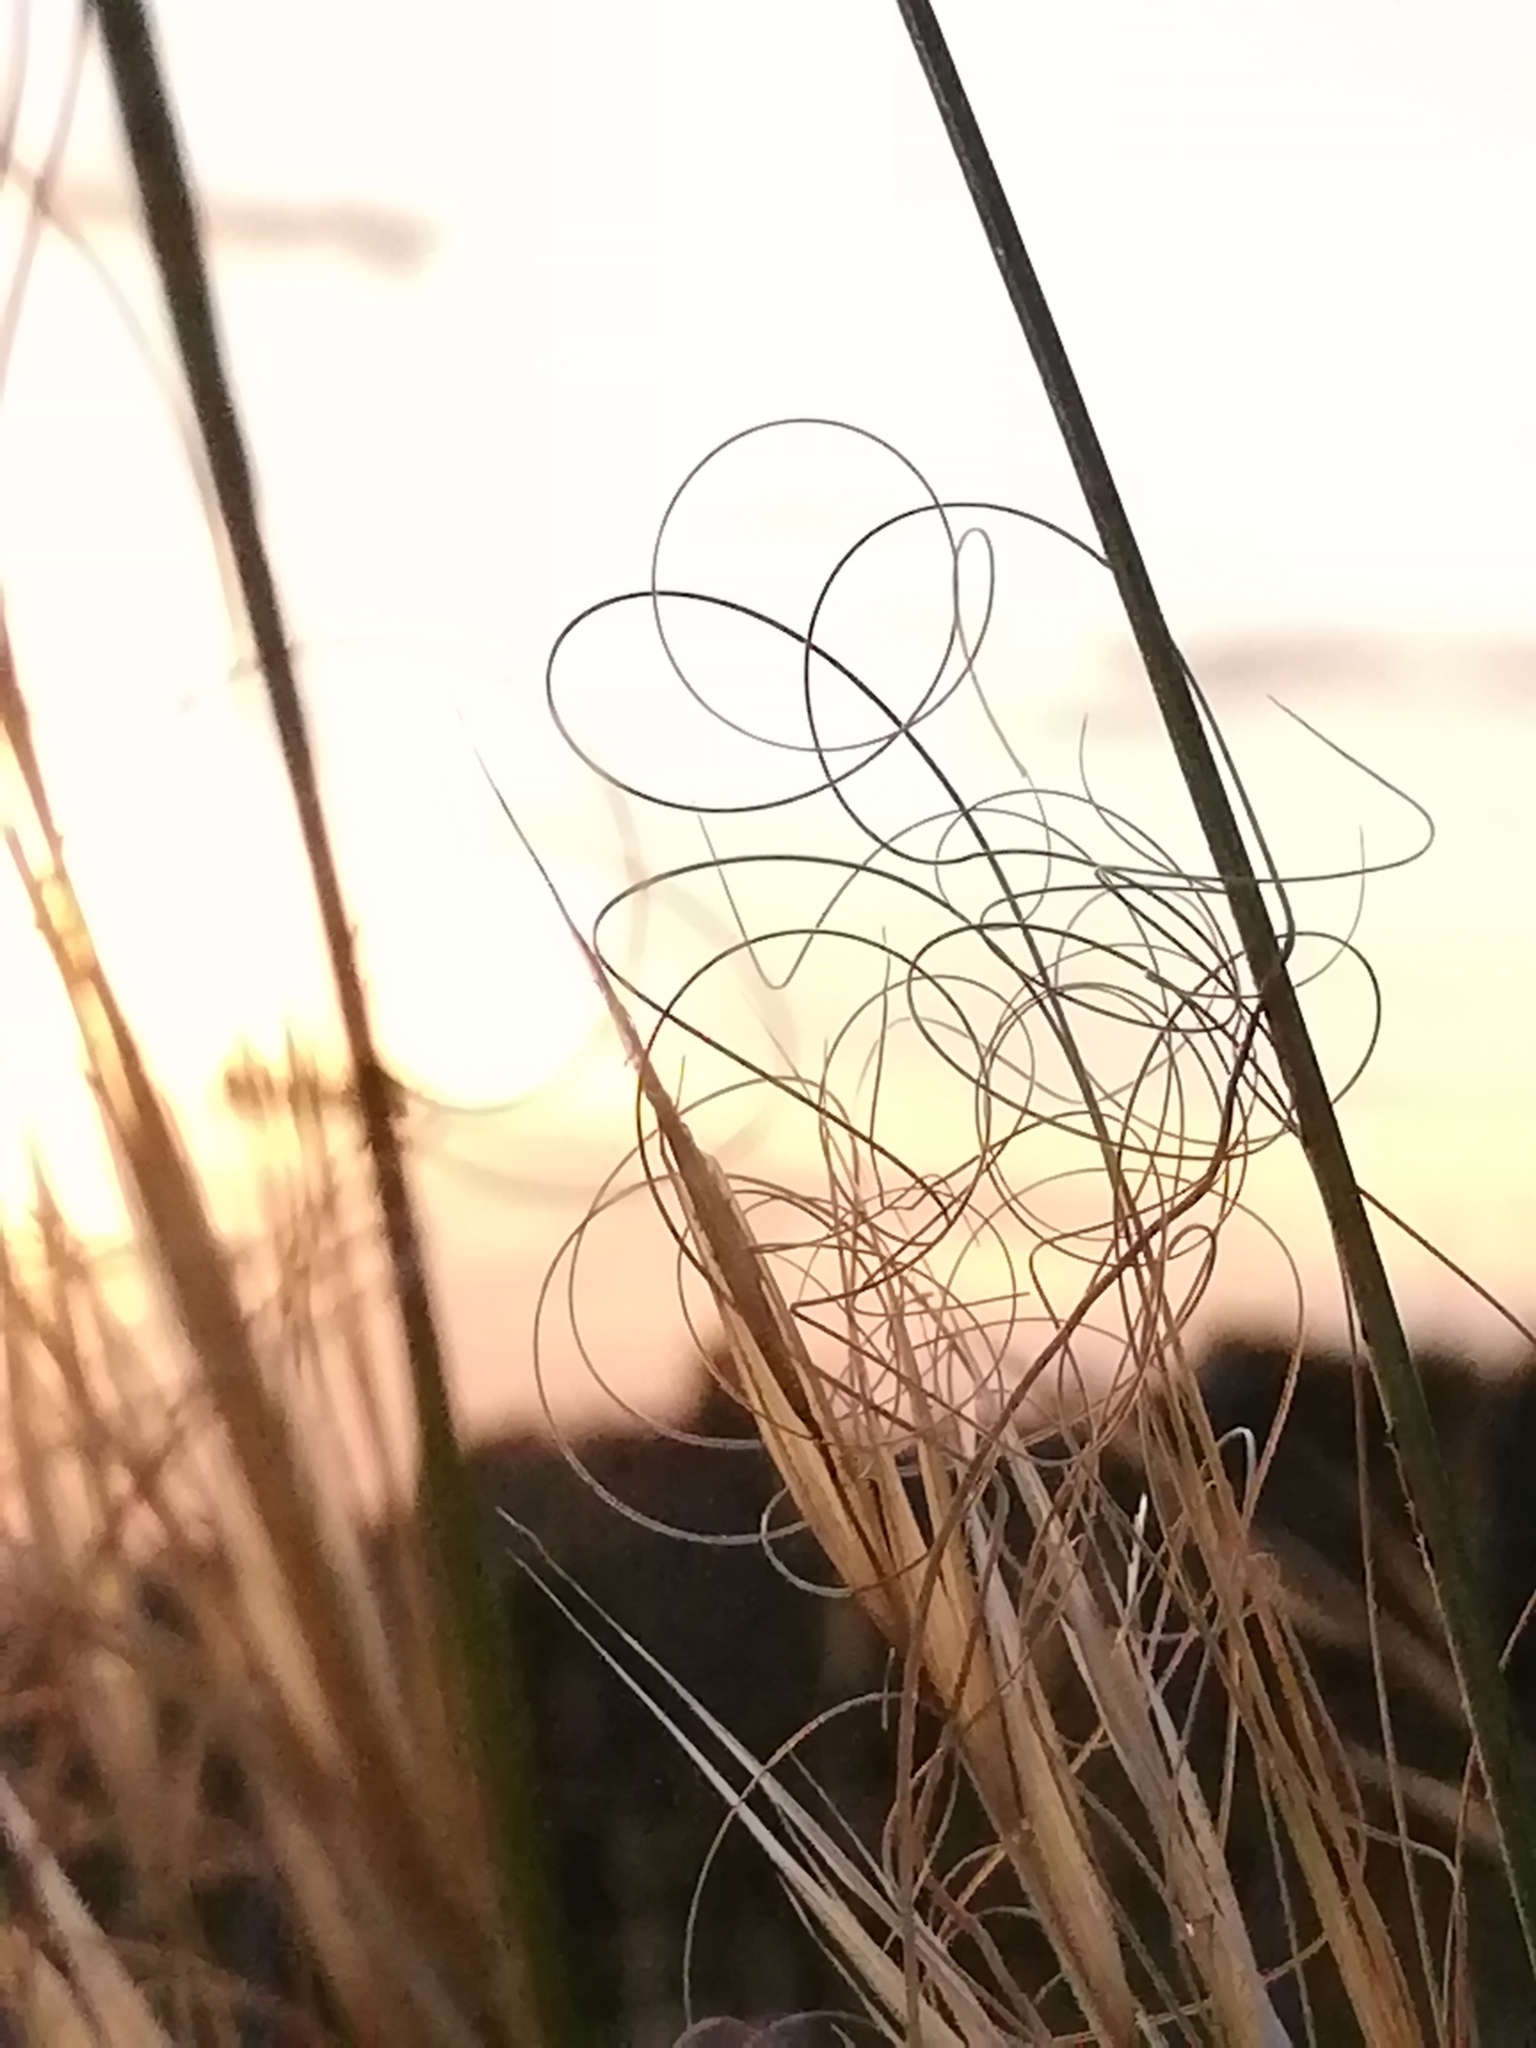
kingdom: Plantae
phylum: Tracheophyta
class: Liliopsida
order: Poales
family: Poaceae
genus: Stipa
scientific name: Stipa capillata
